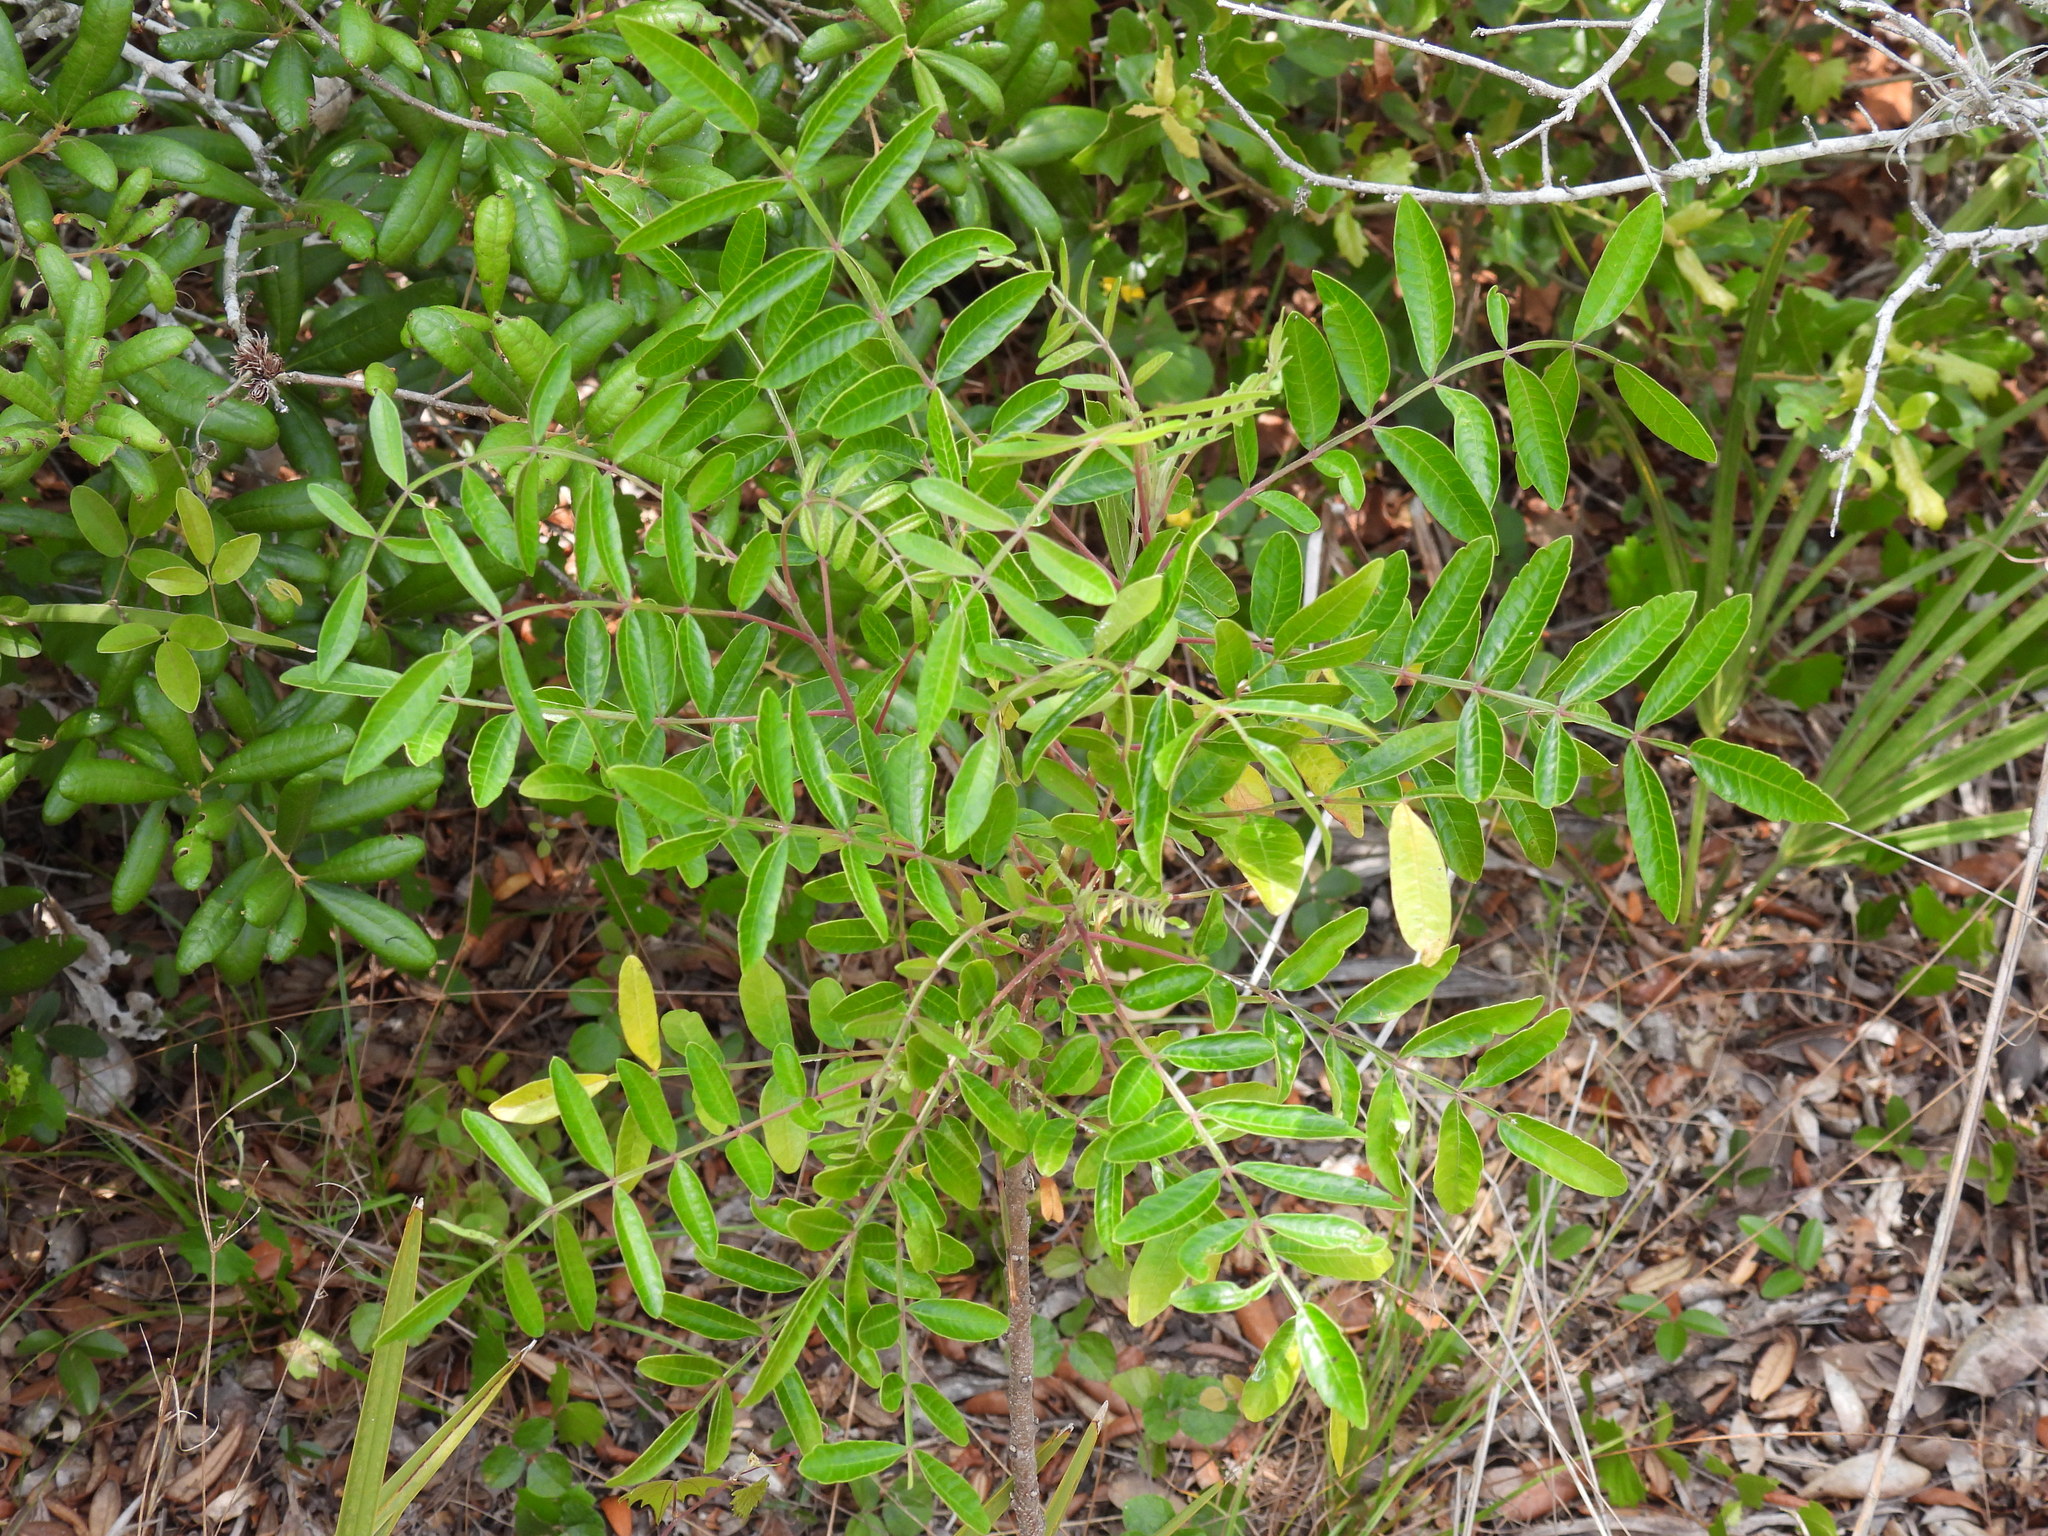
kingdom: Plantae
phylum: Tracheophyta
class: Magnoliopsida
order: Sapindales
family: Anacardiaceae
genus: Rhus
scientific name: Rhus copallina
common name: Shining sumac
